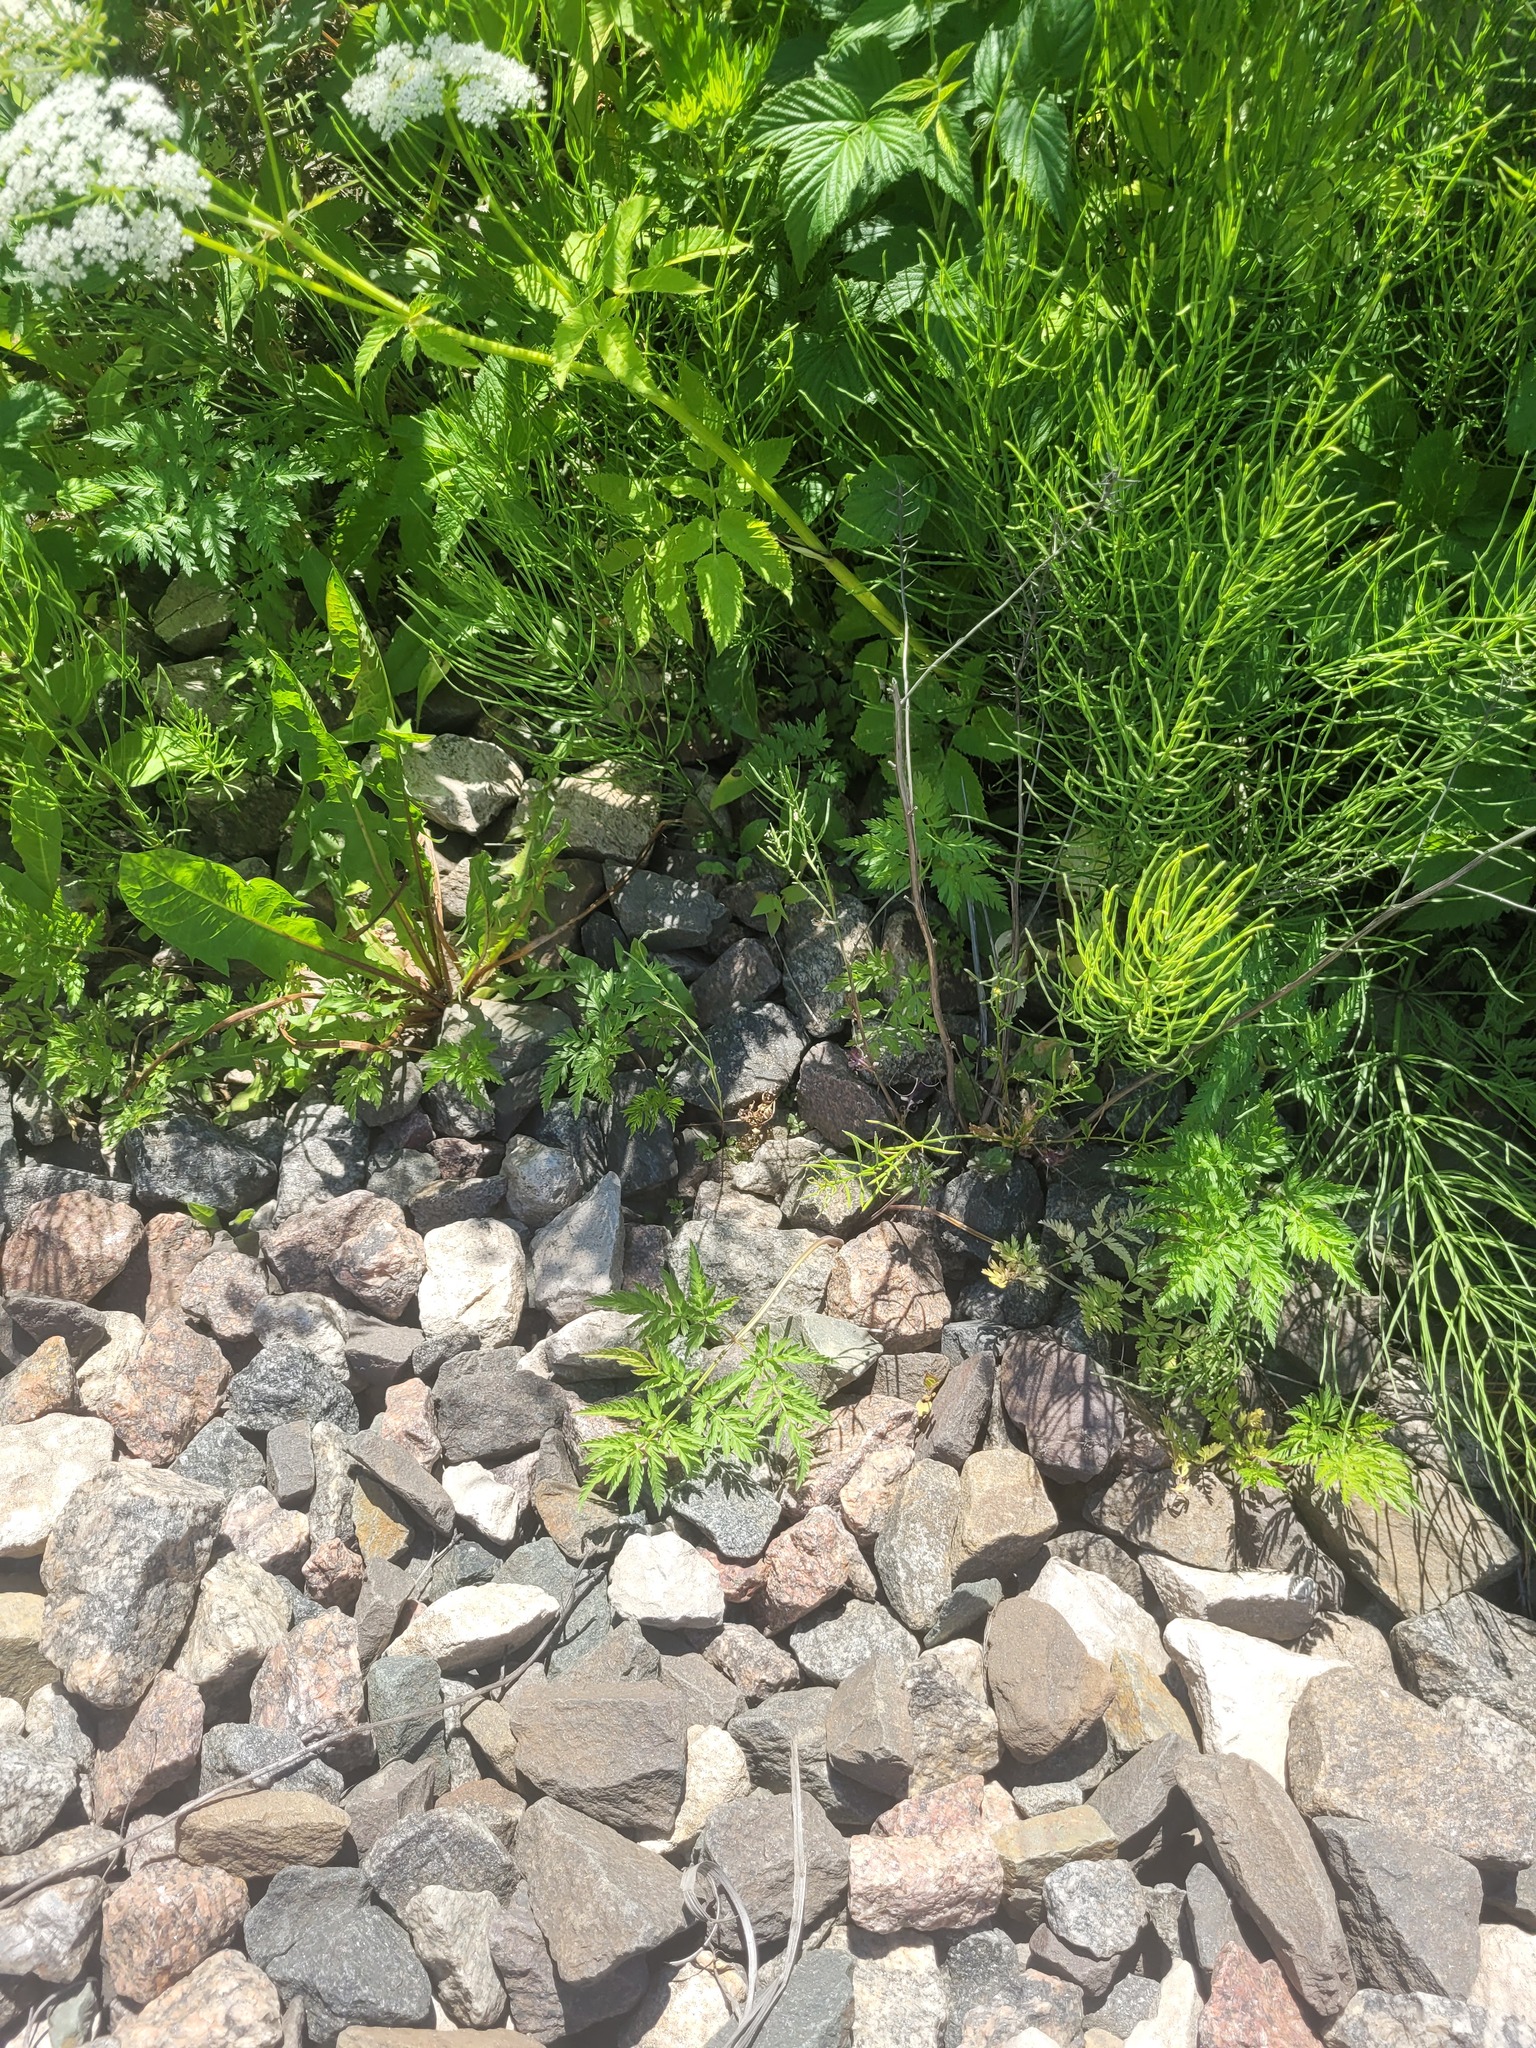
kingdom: Plantae
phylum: Tracheophyta
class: Magnoliopsida
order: Apiales
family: Apiaceae
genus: Anthriscus
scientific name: Anthriscus sylvestris
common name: Cow parsley
